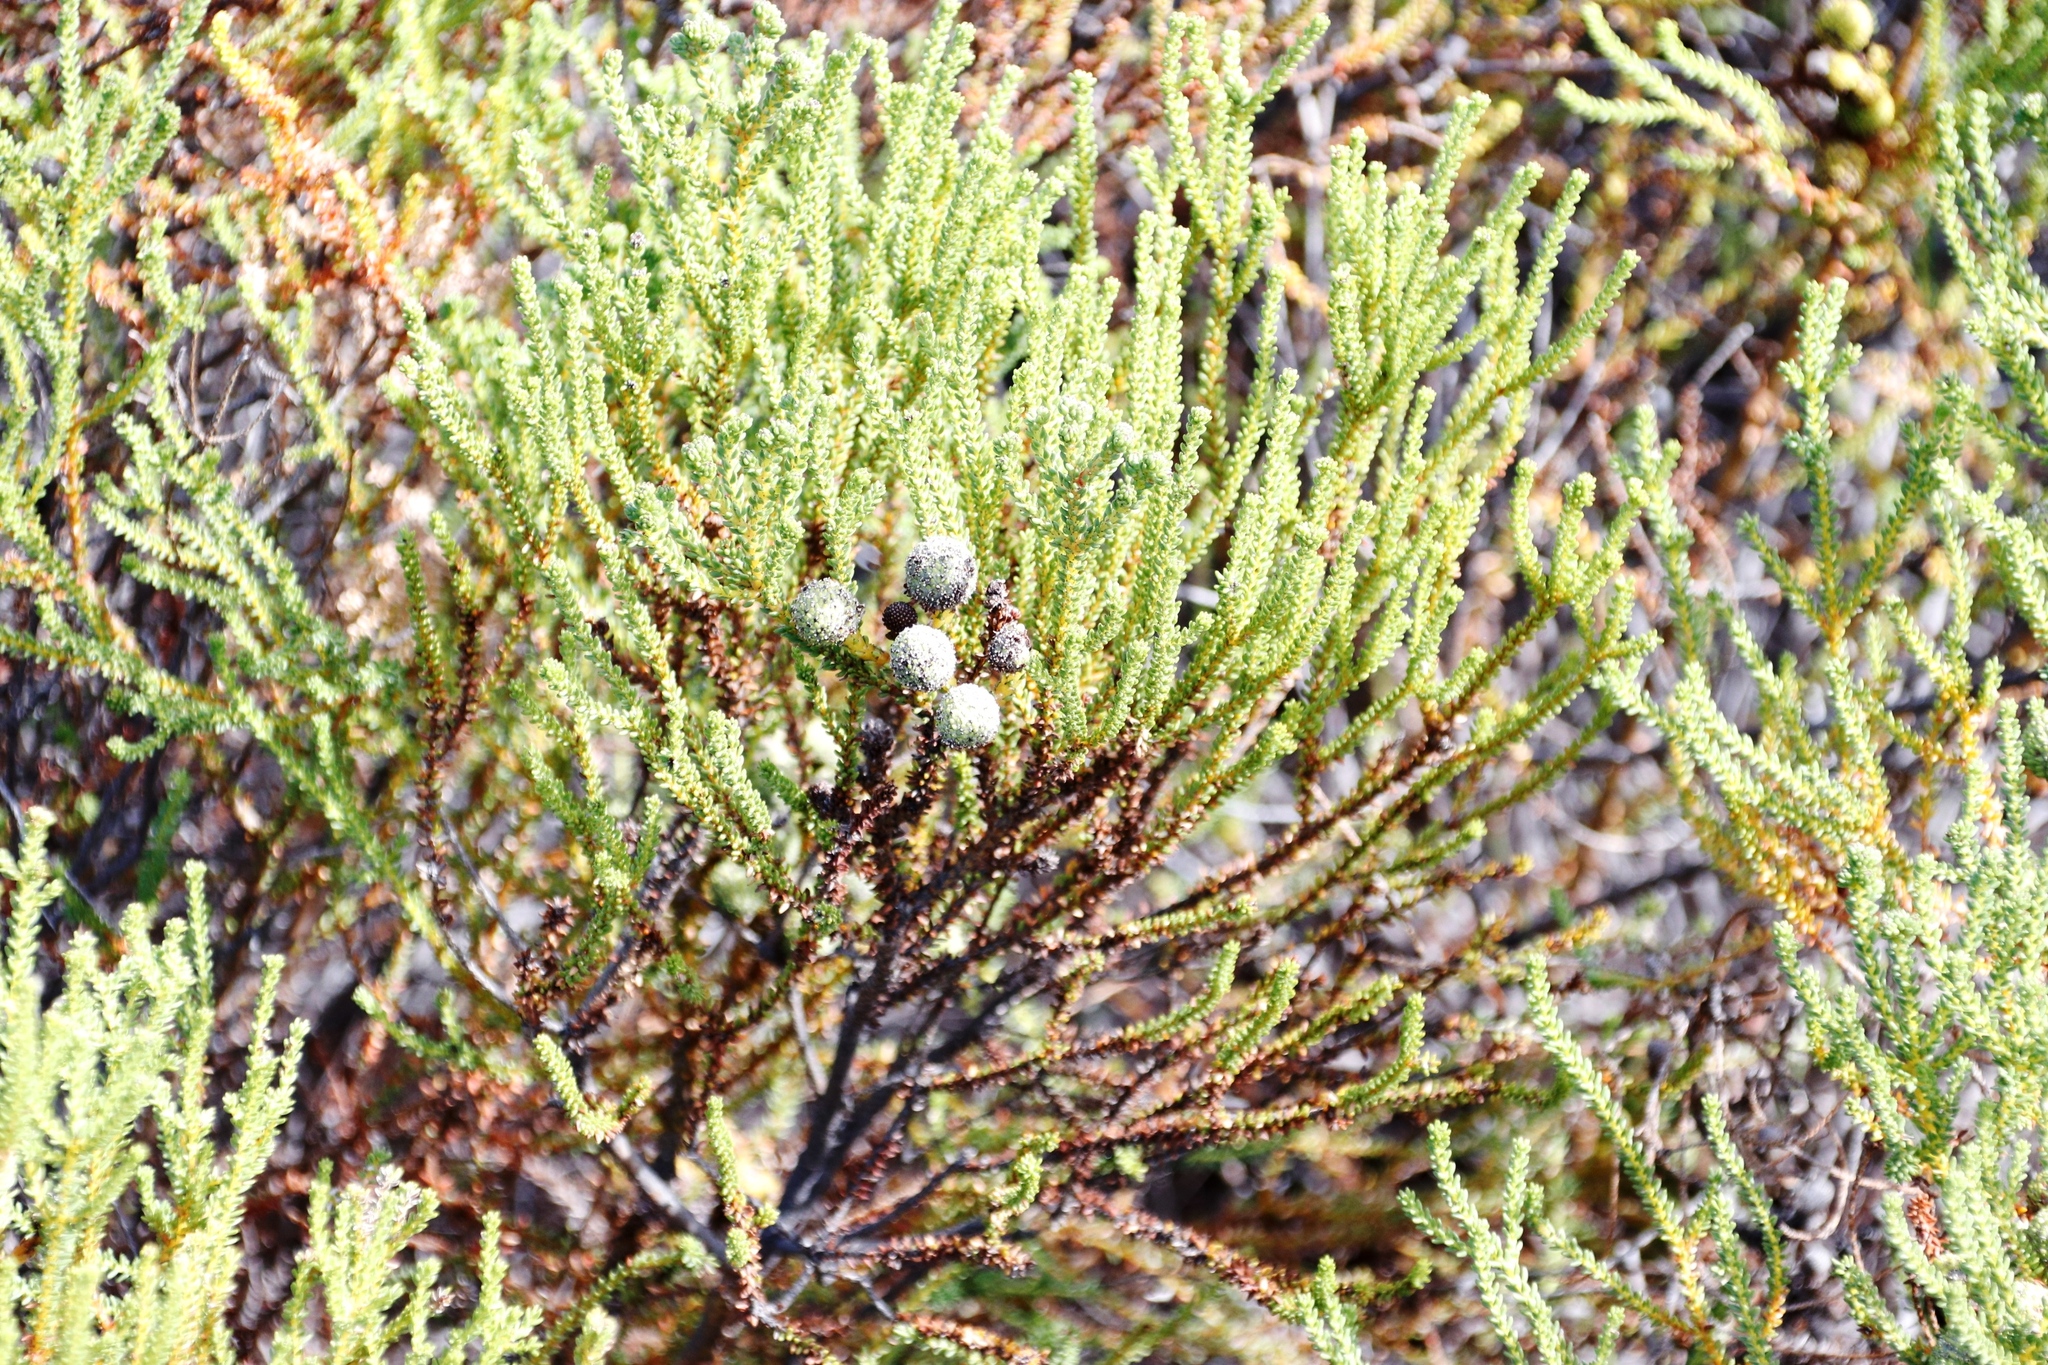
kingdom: Plantae
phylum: Tracheophyta
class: Magnoliopsida
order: Bruniales
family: Bruniaceae
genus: Berzelia
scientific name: Berzelia abrotanoides
